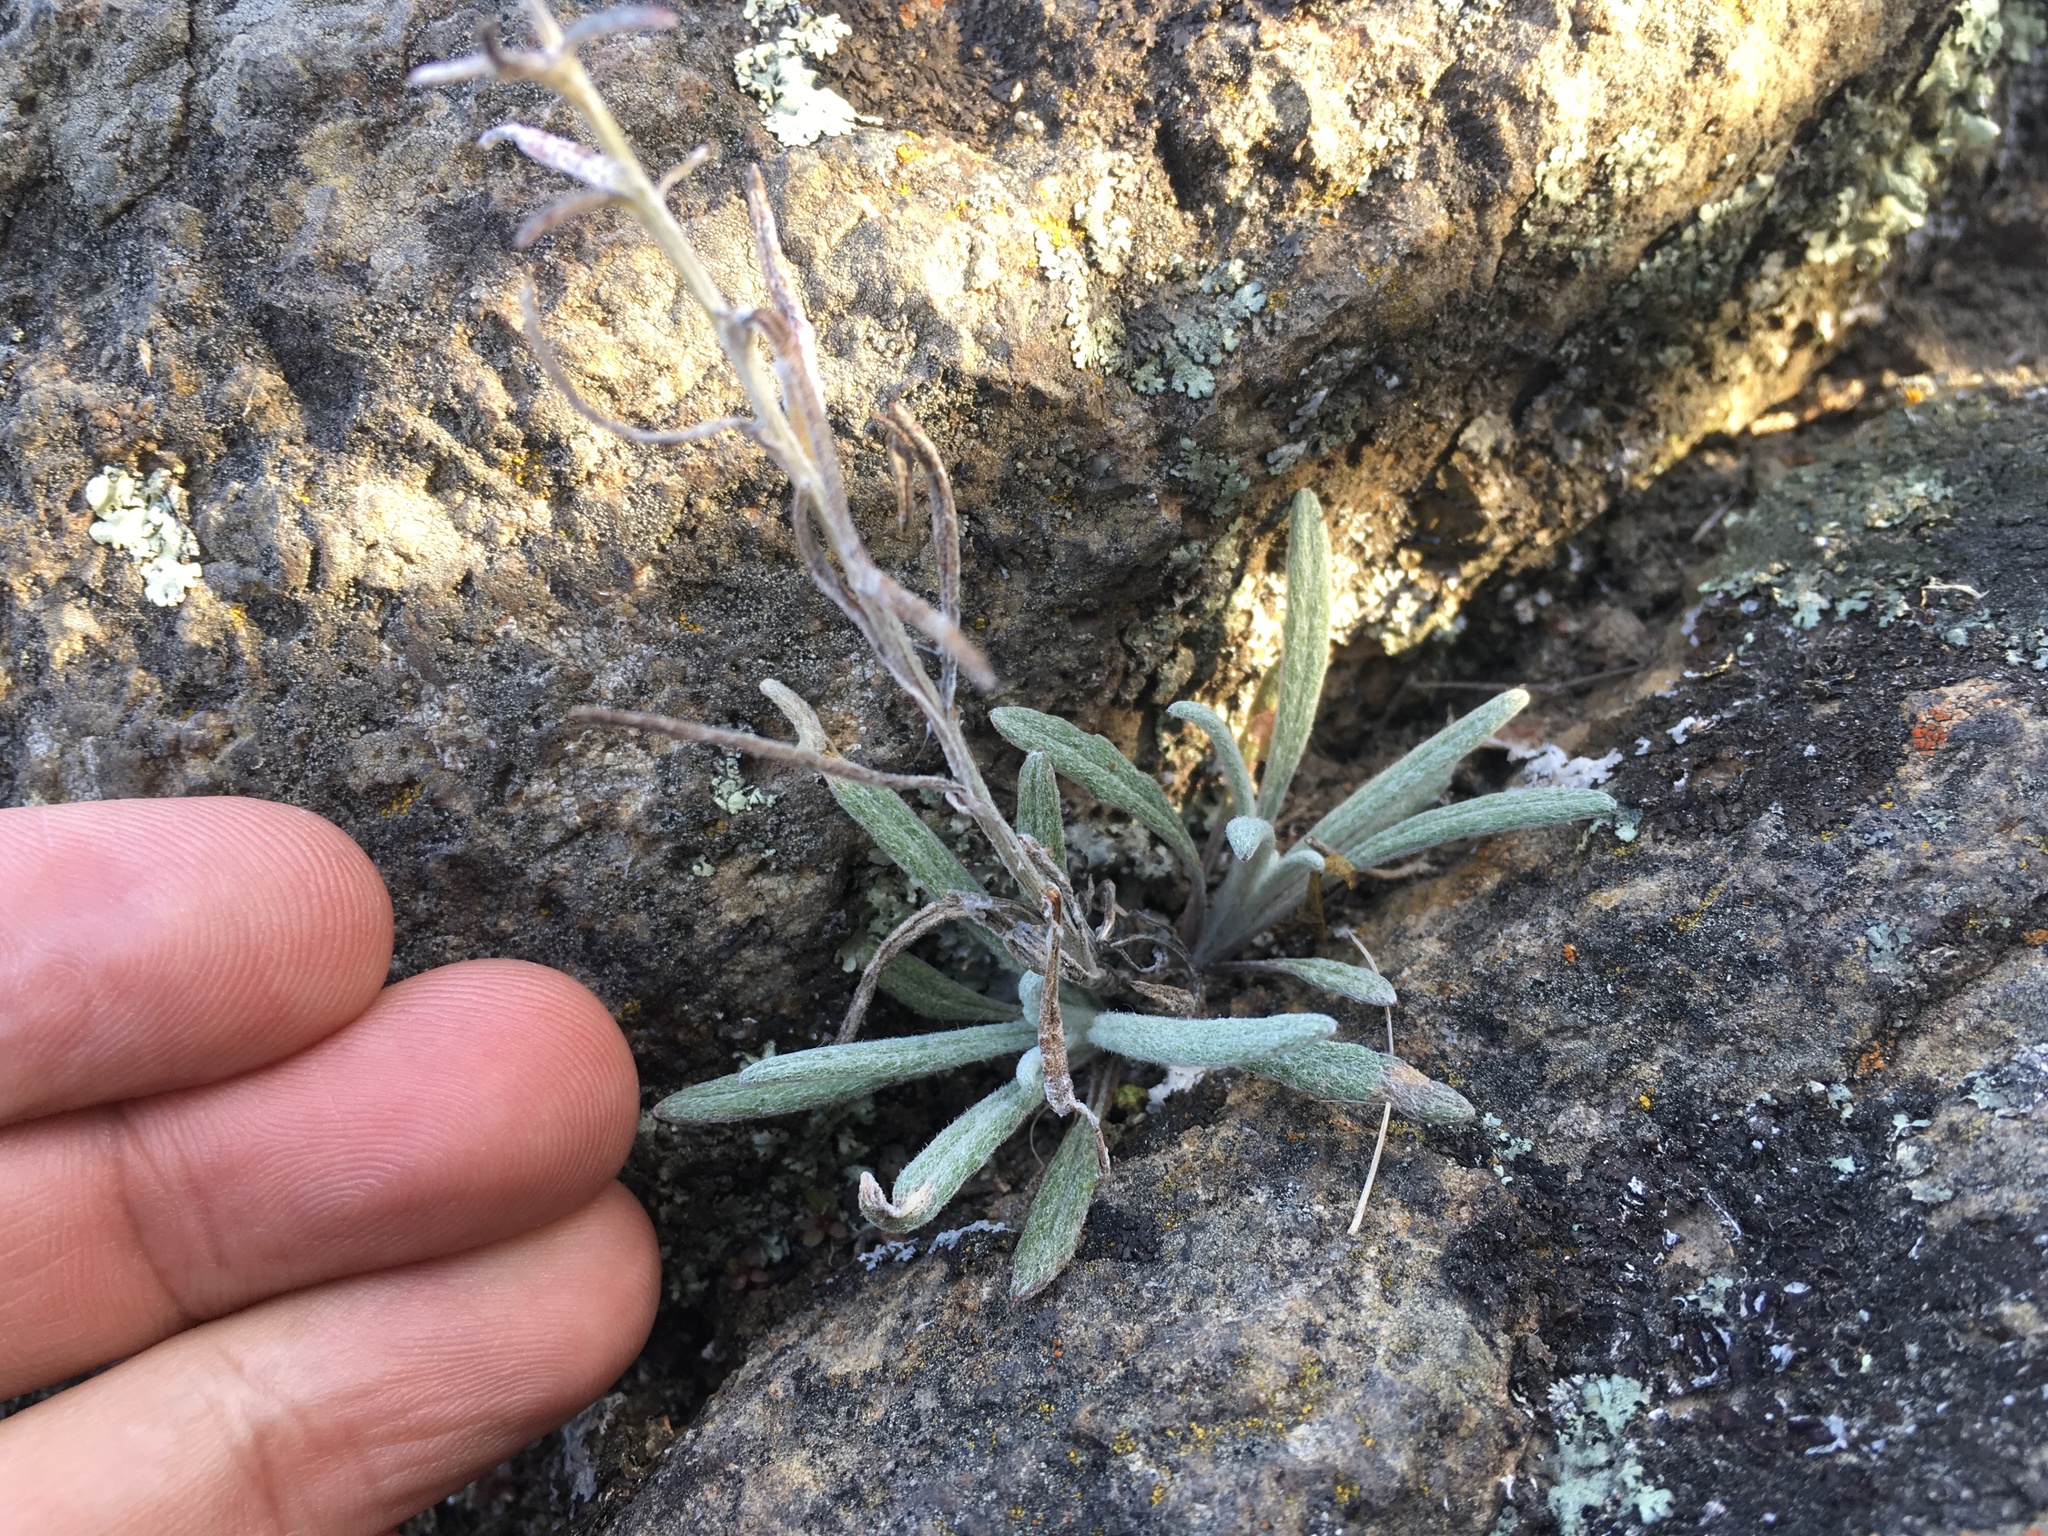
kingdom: Plantae
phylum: Tracheophyta
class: Magnoliopsida
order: Asterales
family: Asteraceae
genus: Senecio
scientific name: Senecio quadridentatus
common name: Cotton fireweed
